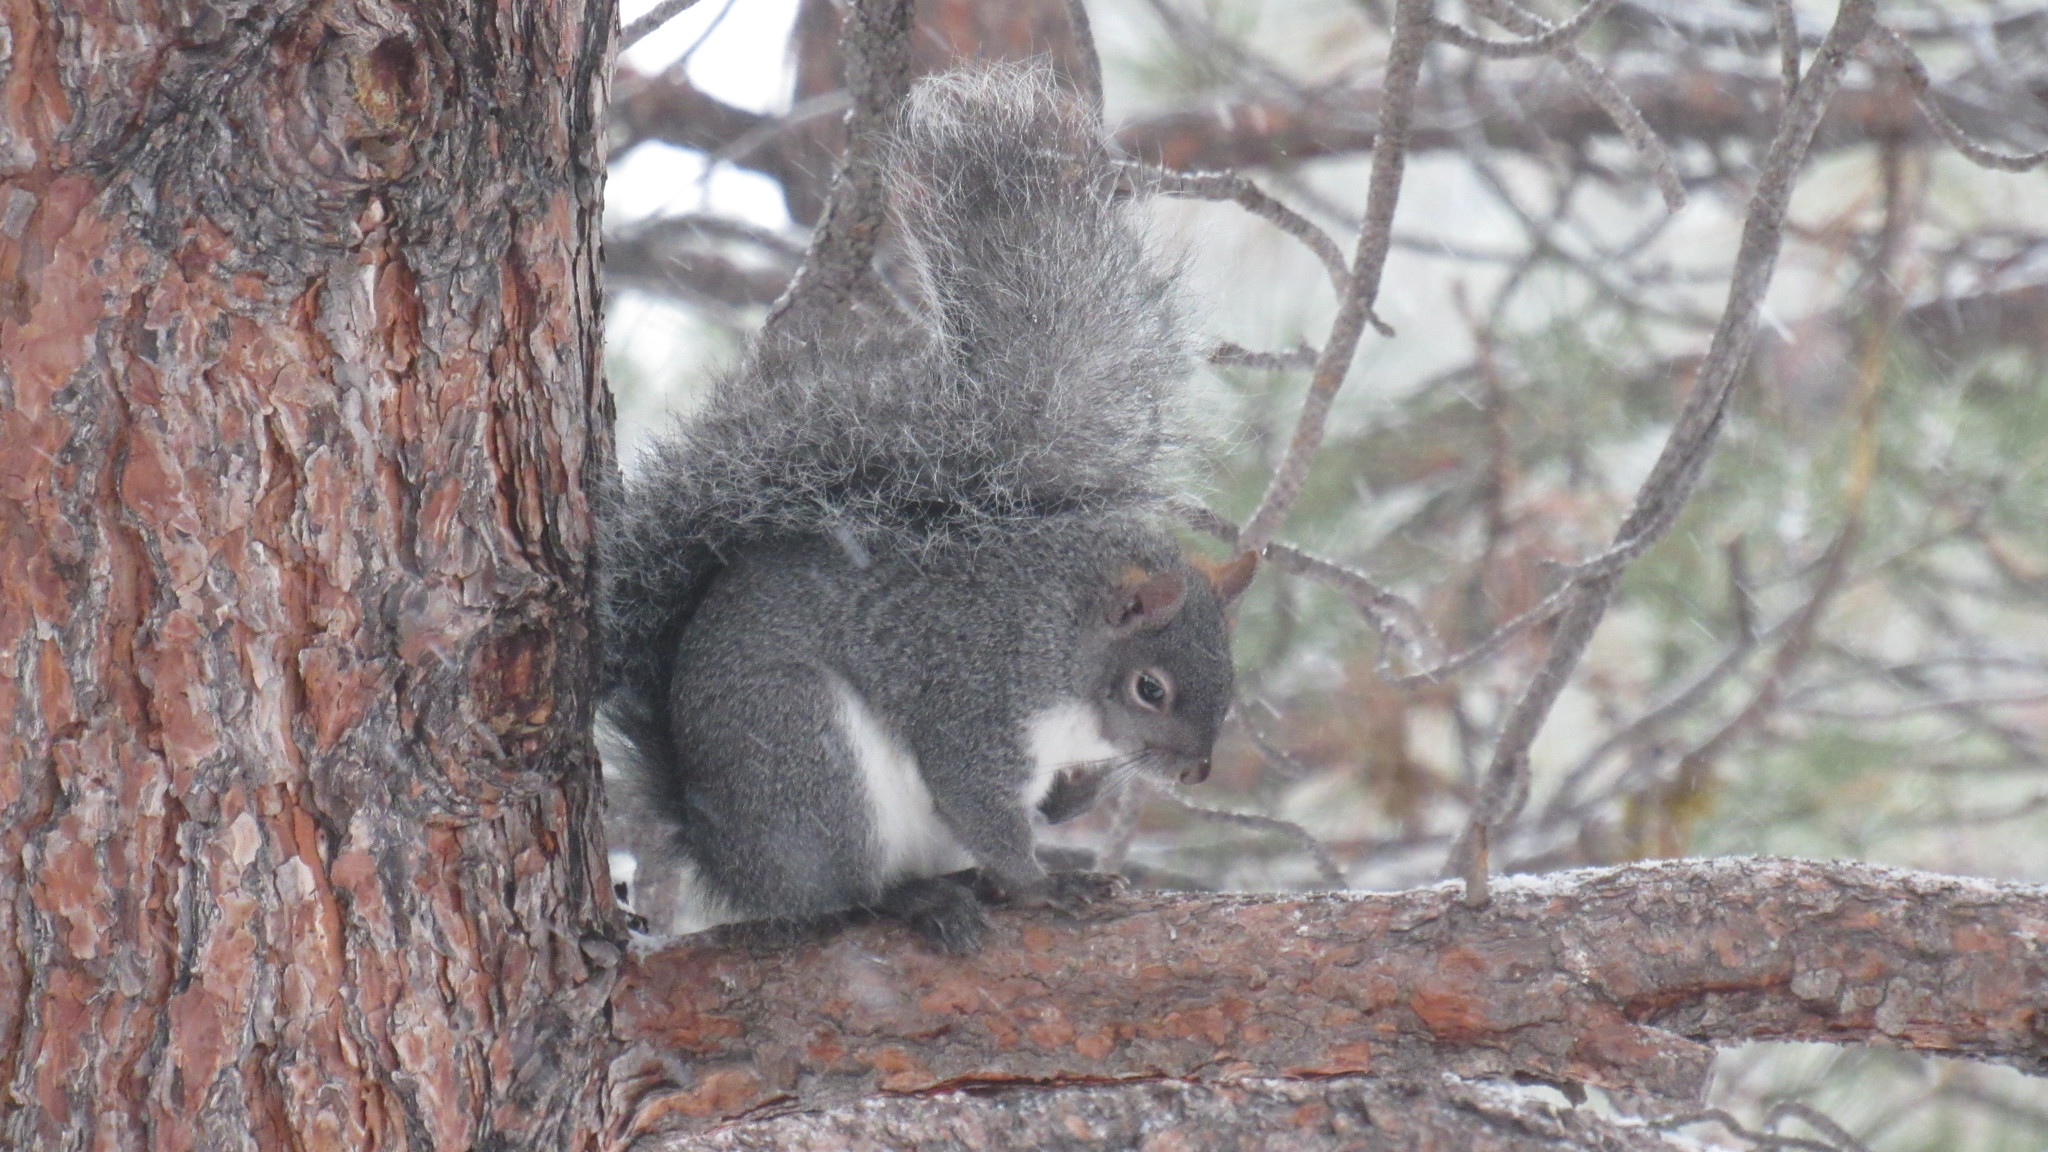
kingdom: Animalia
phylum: Chordata
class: Mammalia
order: Rodentia
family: Sciuridae
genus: Sciurus
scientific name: Sciurus griseus
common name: Western gray squirrel
